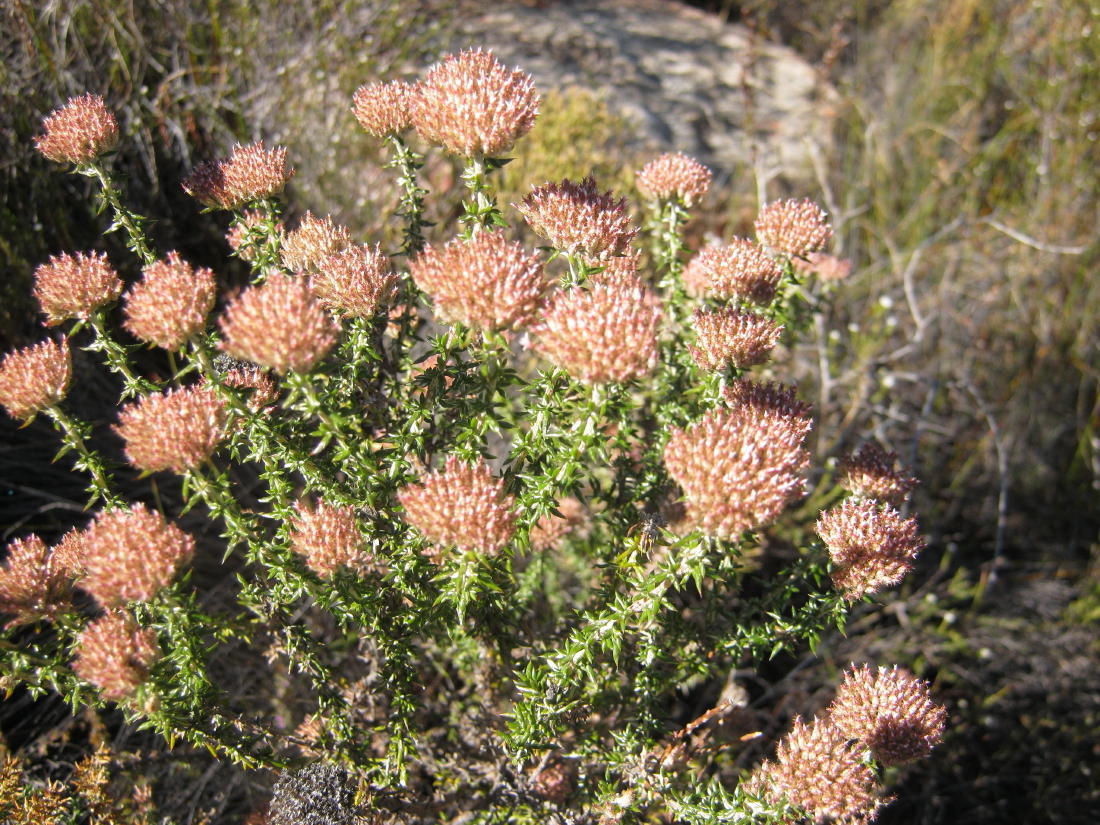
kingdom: Plantae
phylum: Tracheophyta
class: Magnoliopsida
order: Asterales
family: Asteraceae
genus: Metalasia
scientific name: Metalasia massonii
